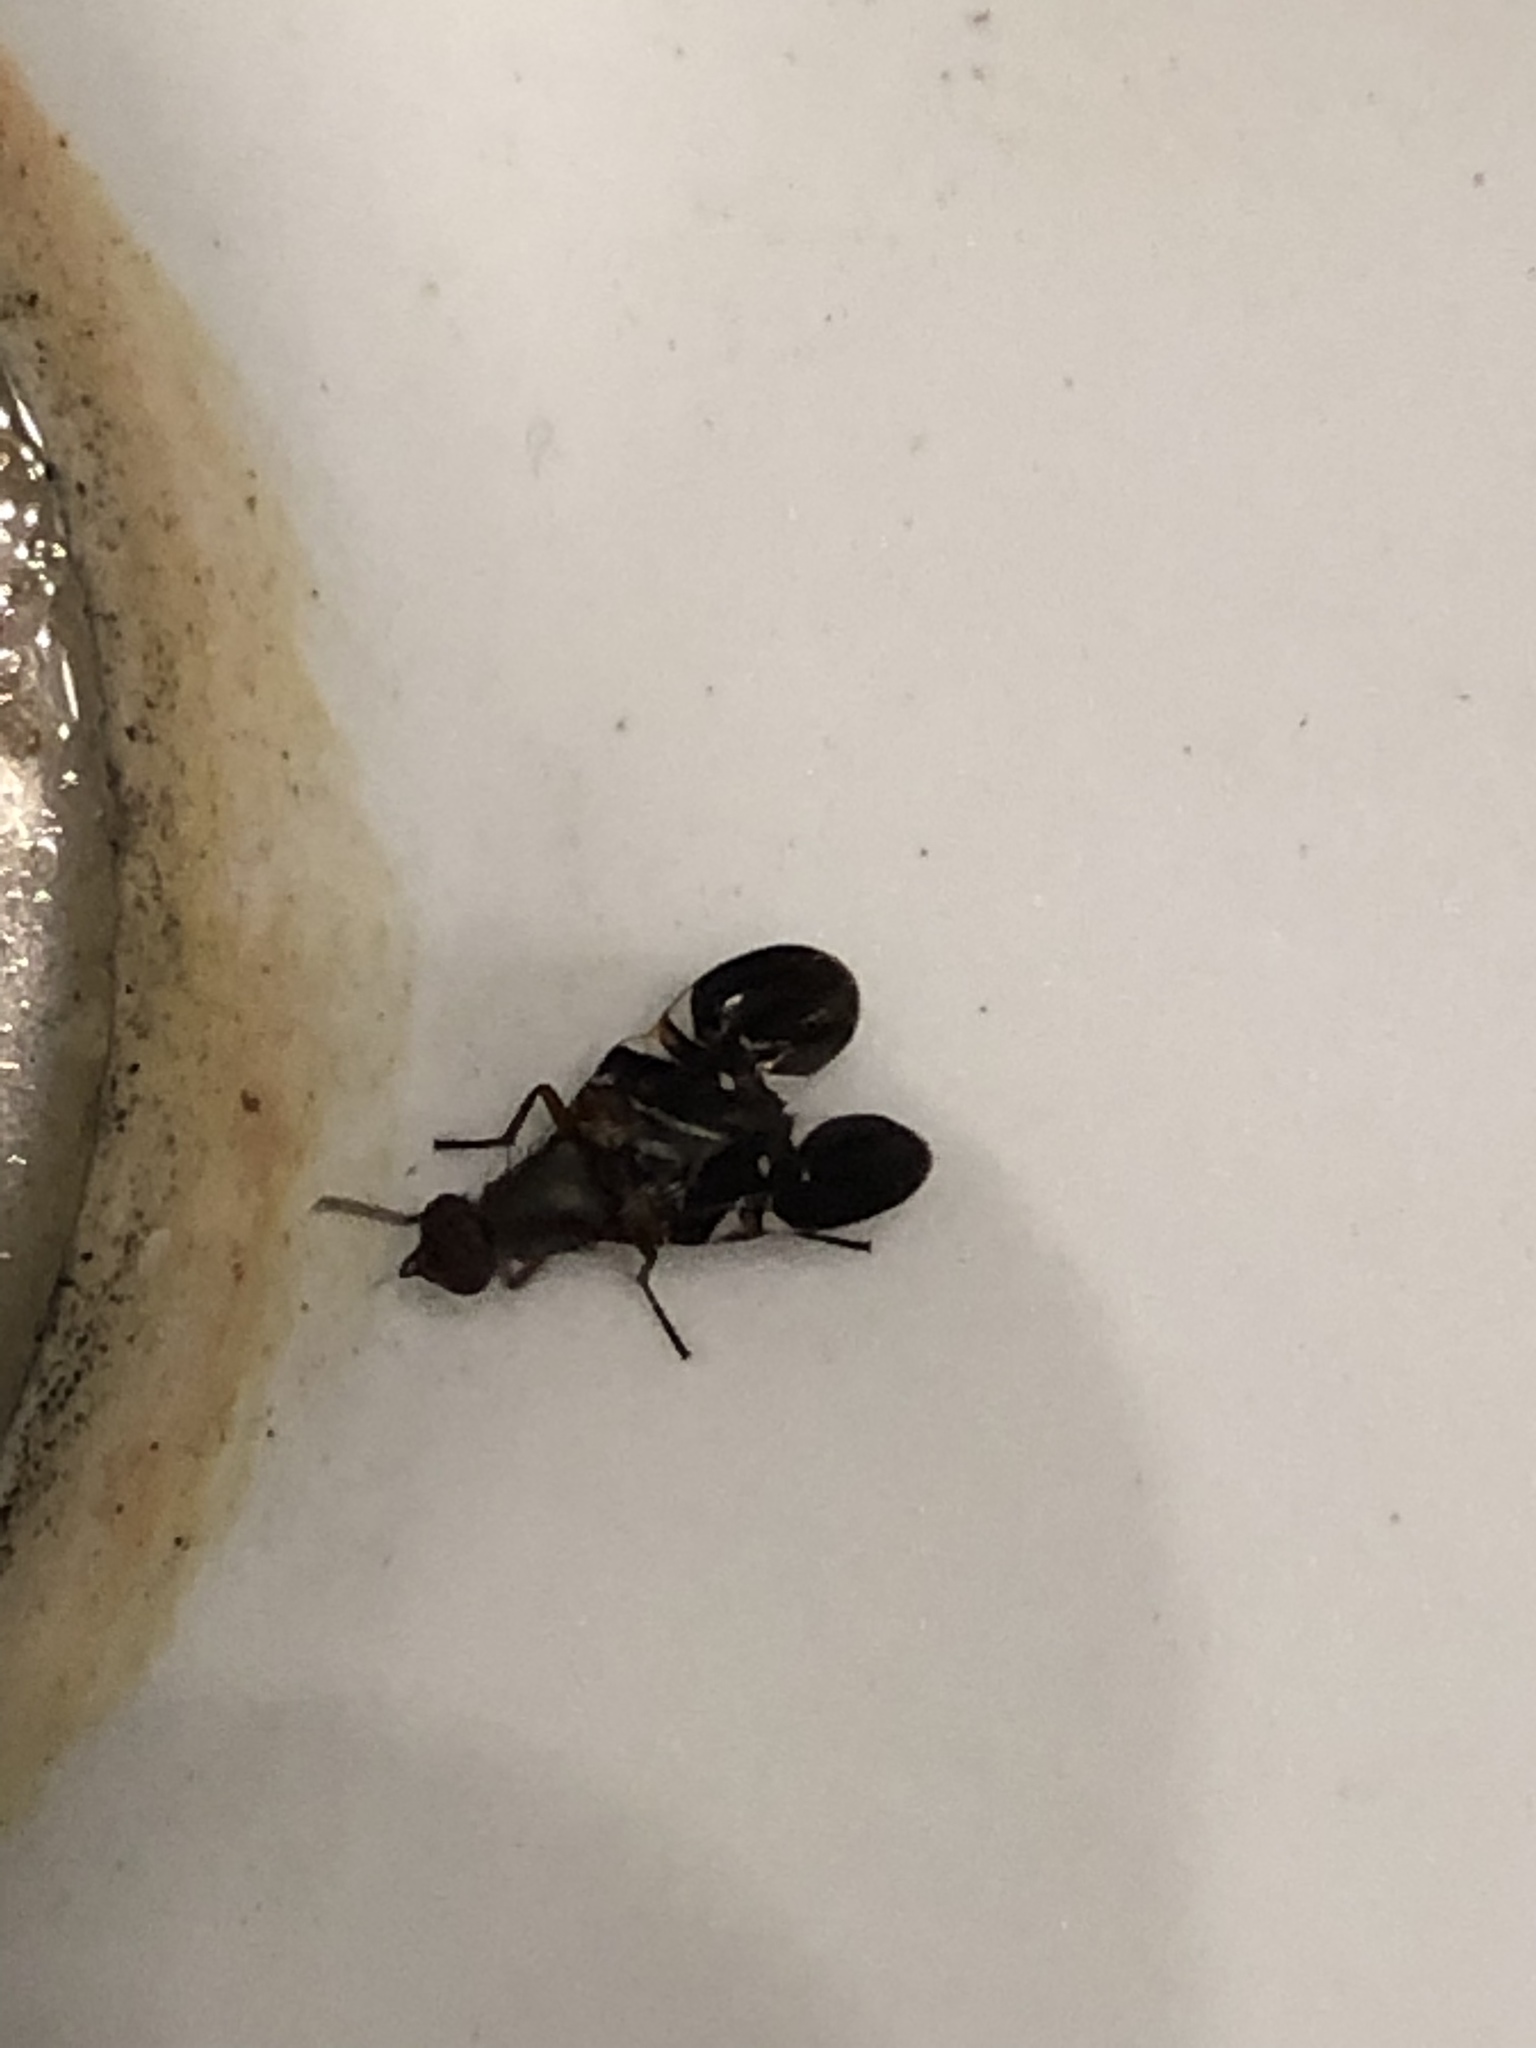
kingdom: Animalia
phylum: Arthropoda
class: Insecta
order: Diptera
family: Ulidiidae
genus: Delphinia
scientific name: Delphinia picta
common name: Common picture-winged fly
